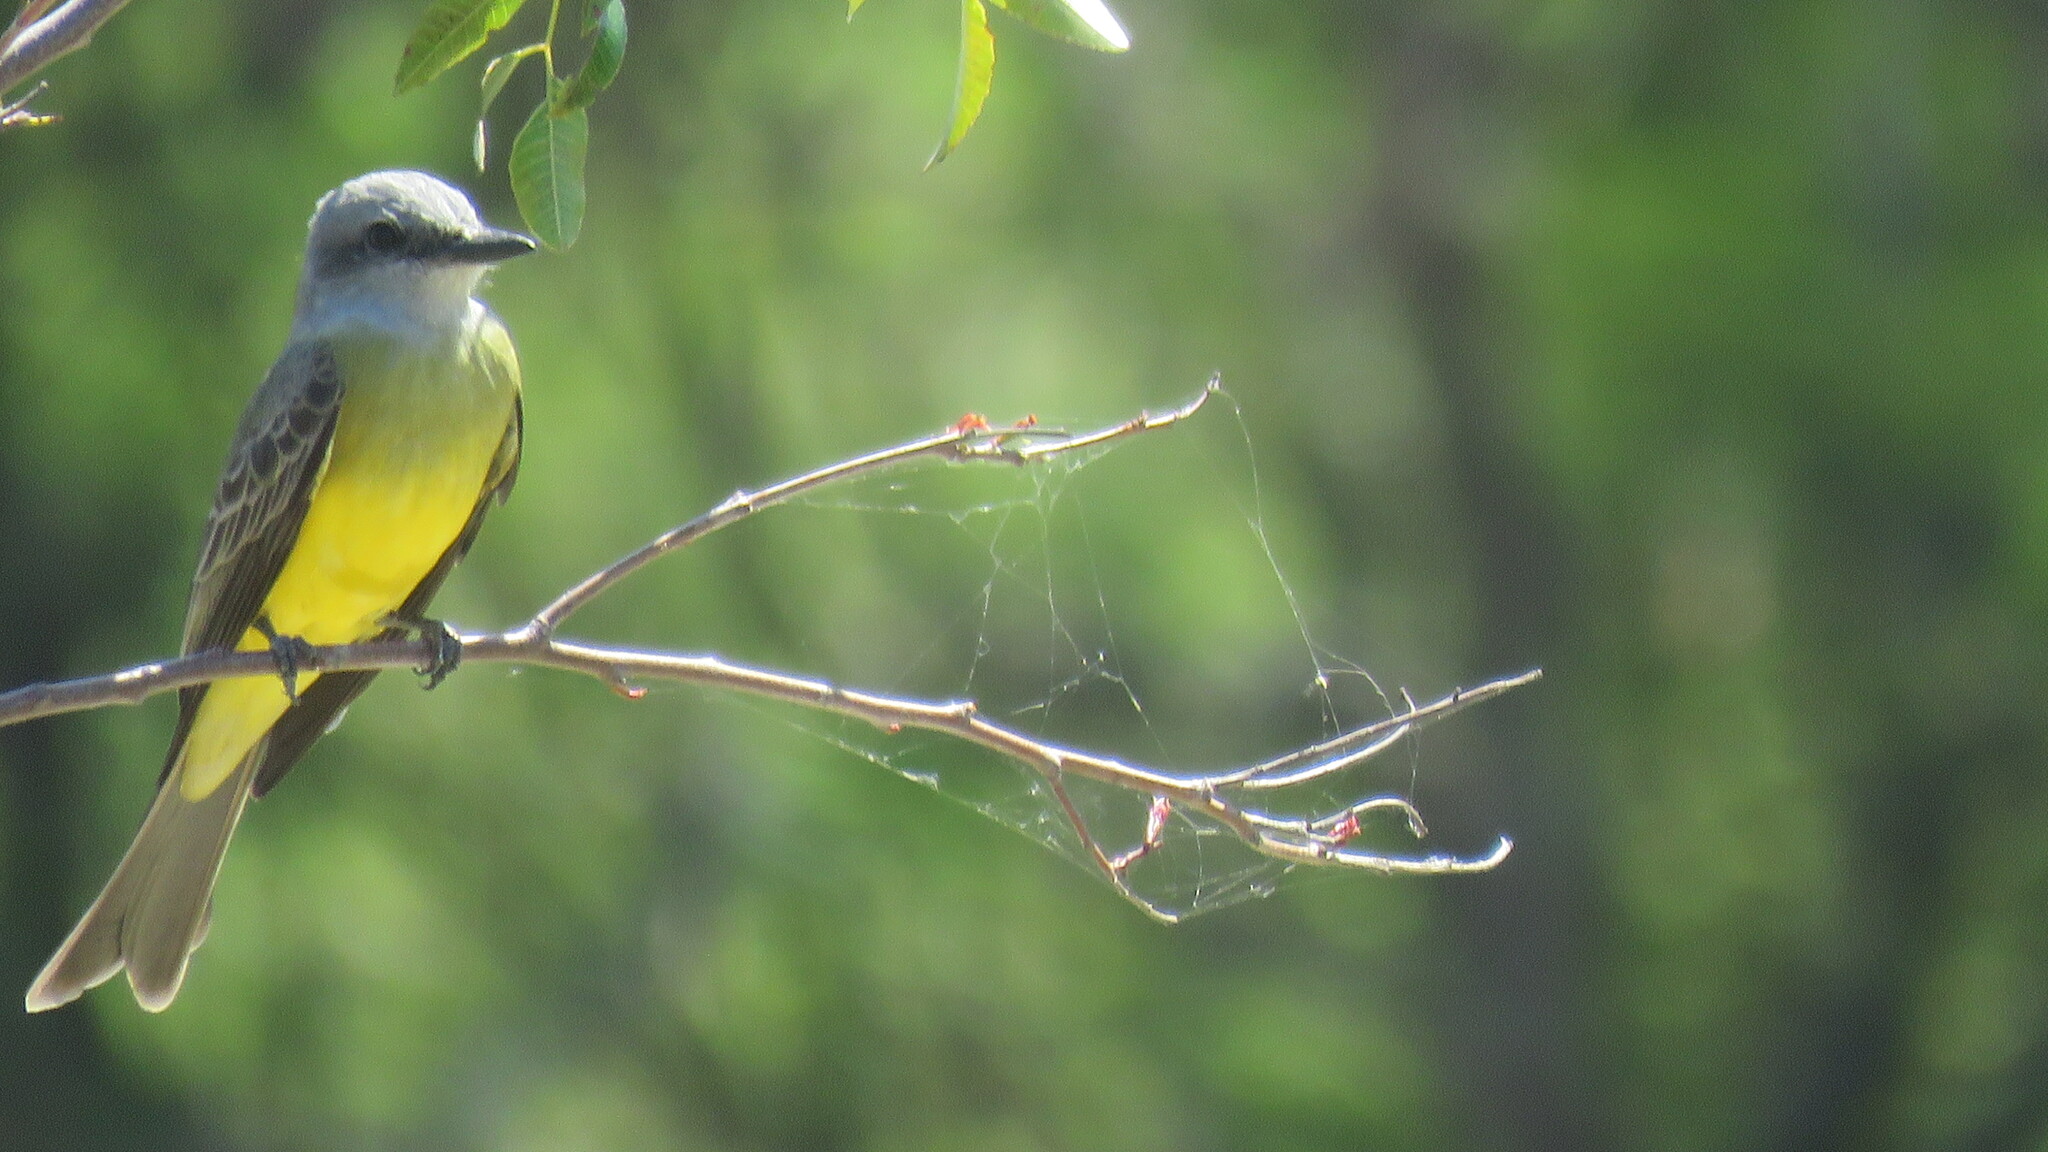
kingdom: Animalia
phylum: Chordata
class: Aves
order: Passeriformes
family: Tyrannidae
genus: Tyrannus
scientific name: Tyrannus melancholicus
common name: Tropical kingbird
